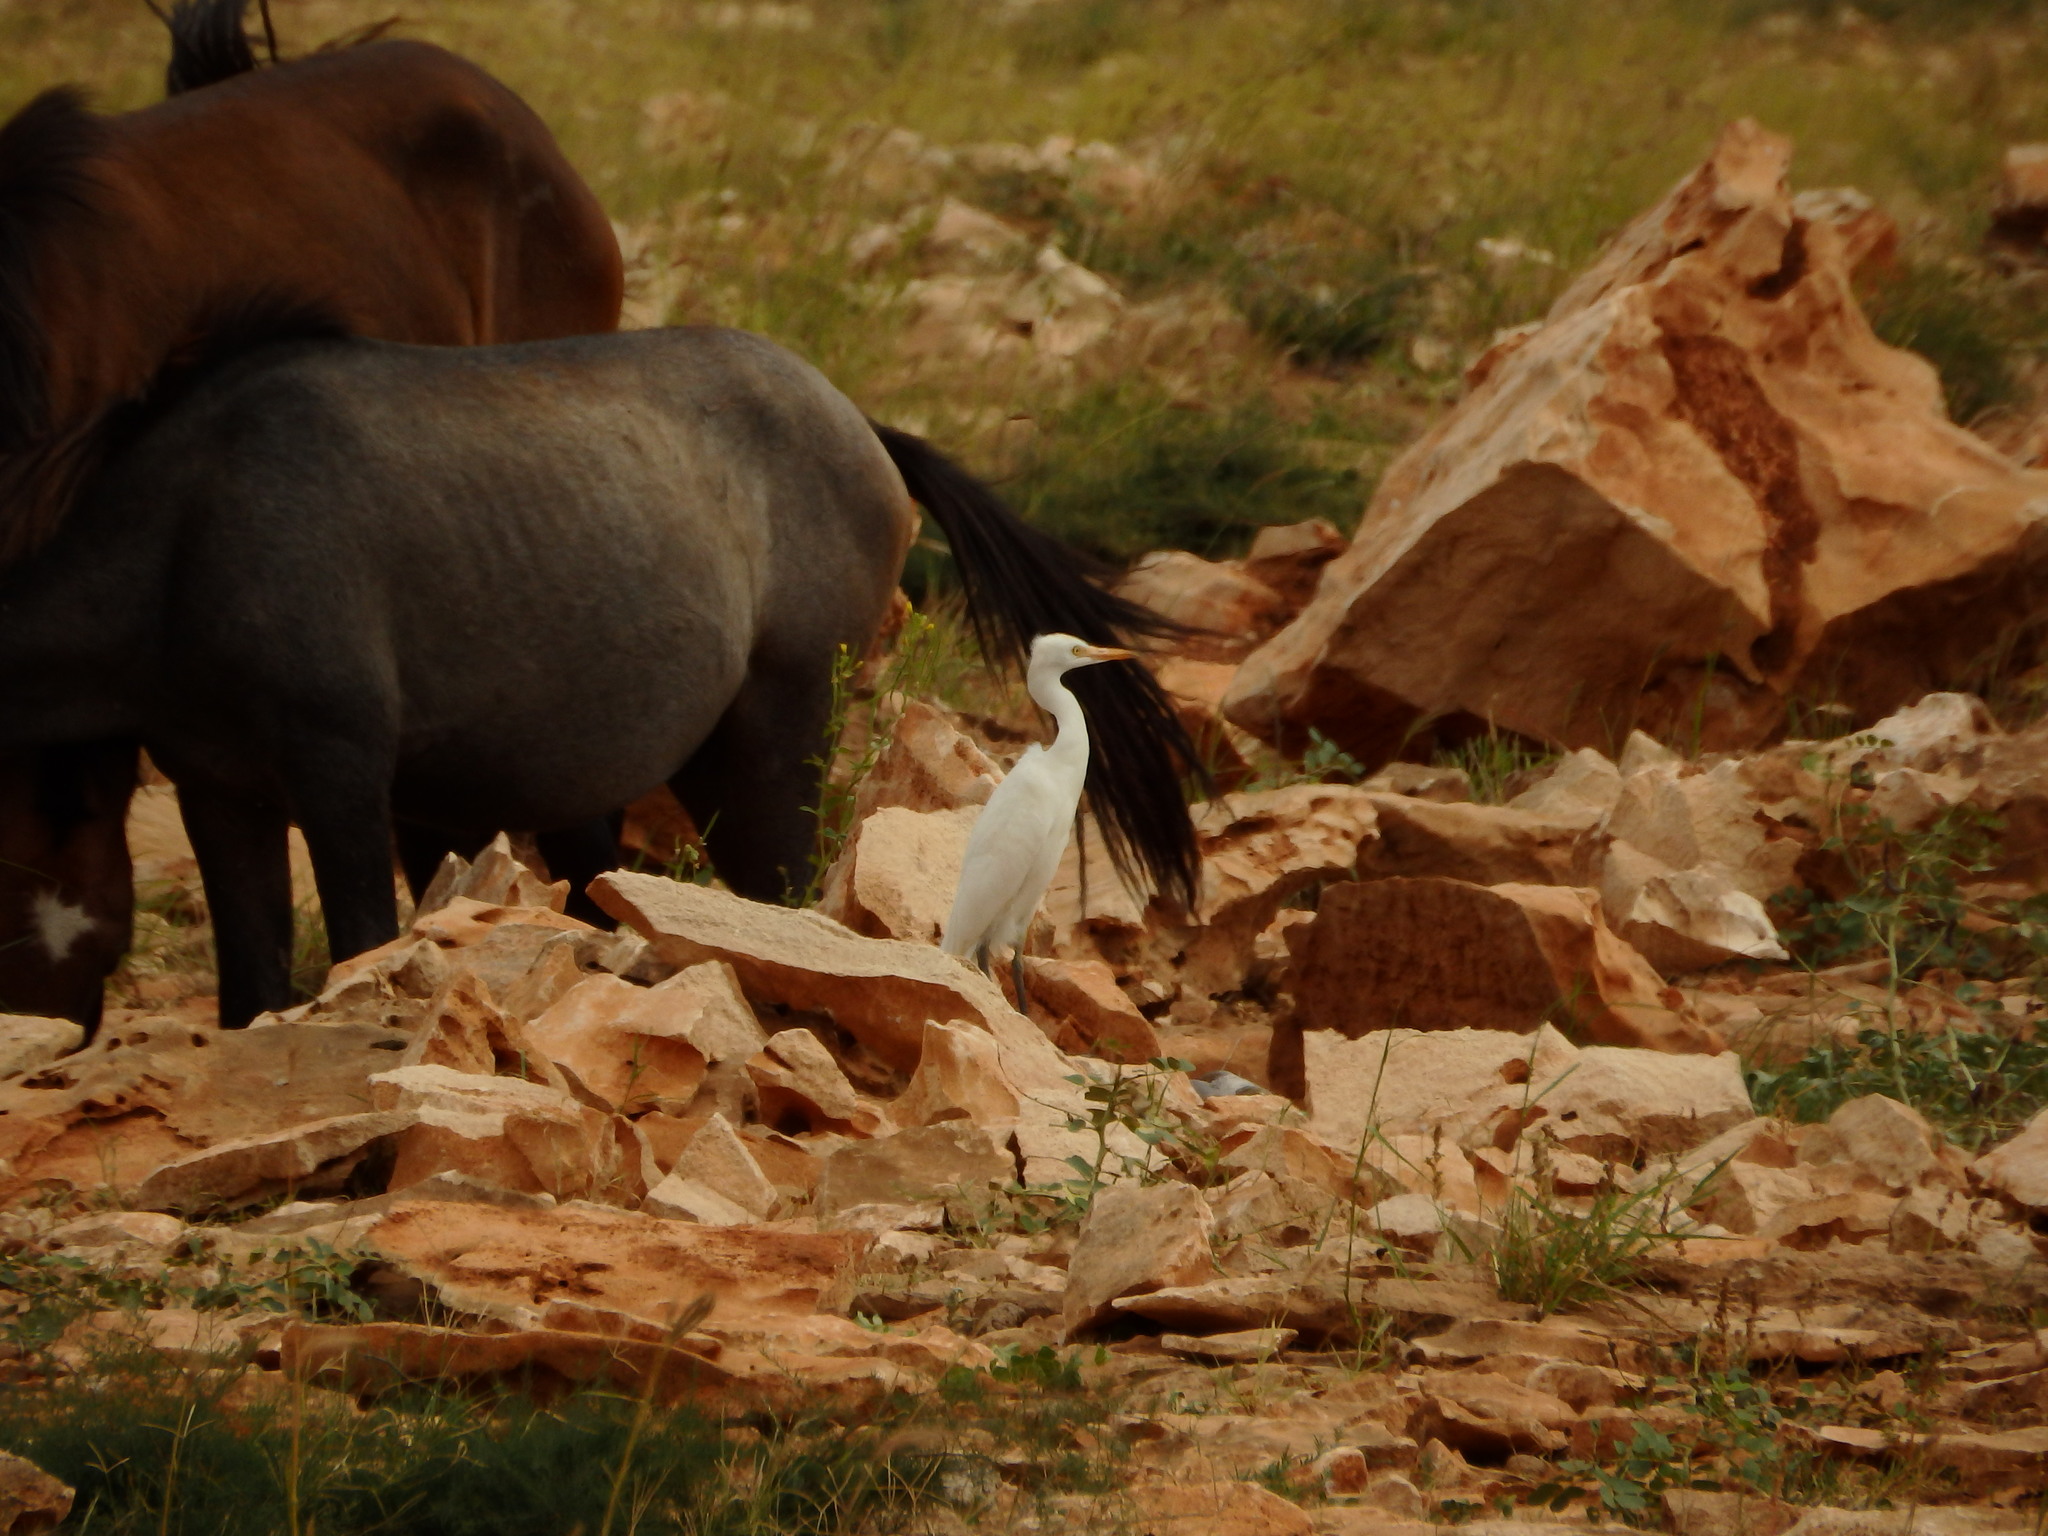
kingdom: Animalia
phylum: Chordata
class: Aves
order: Pelecaniformes
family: Ardeidae
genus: Bubulcus
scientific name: Bubulcus ibis
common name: Cattle egret
